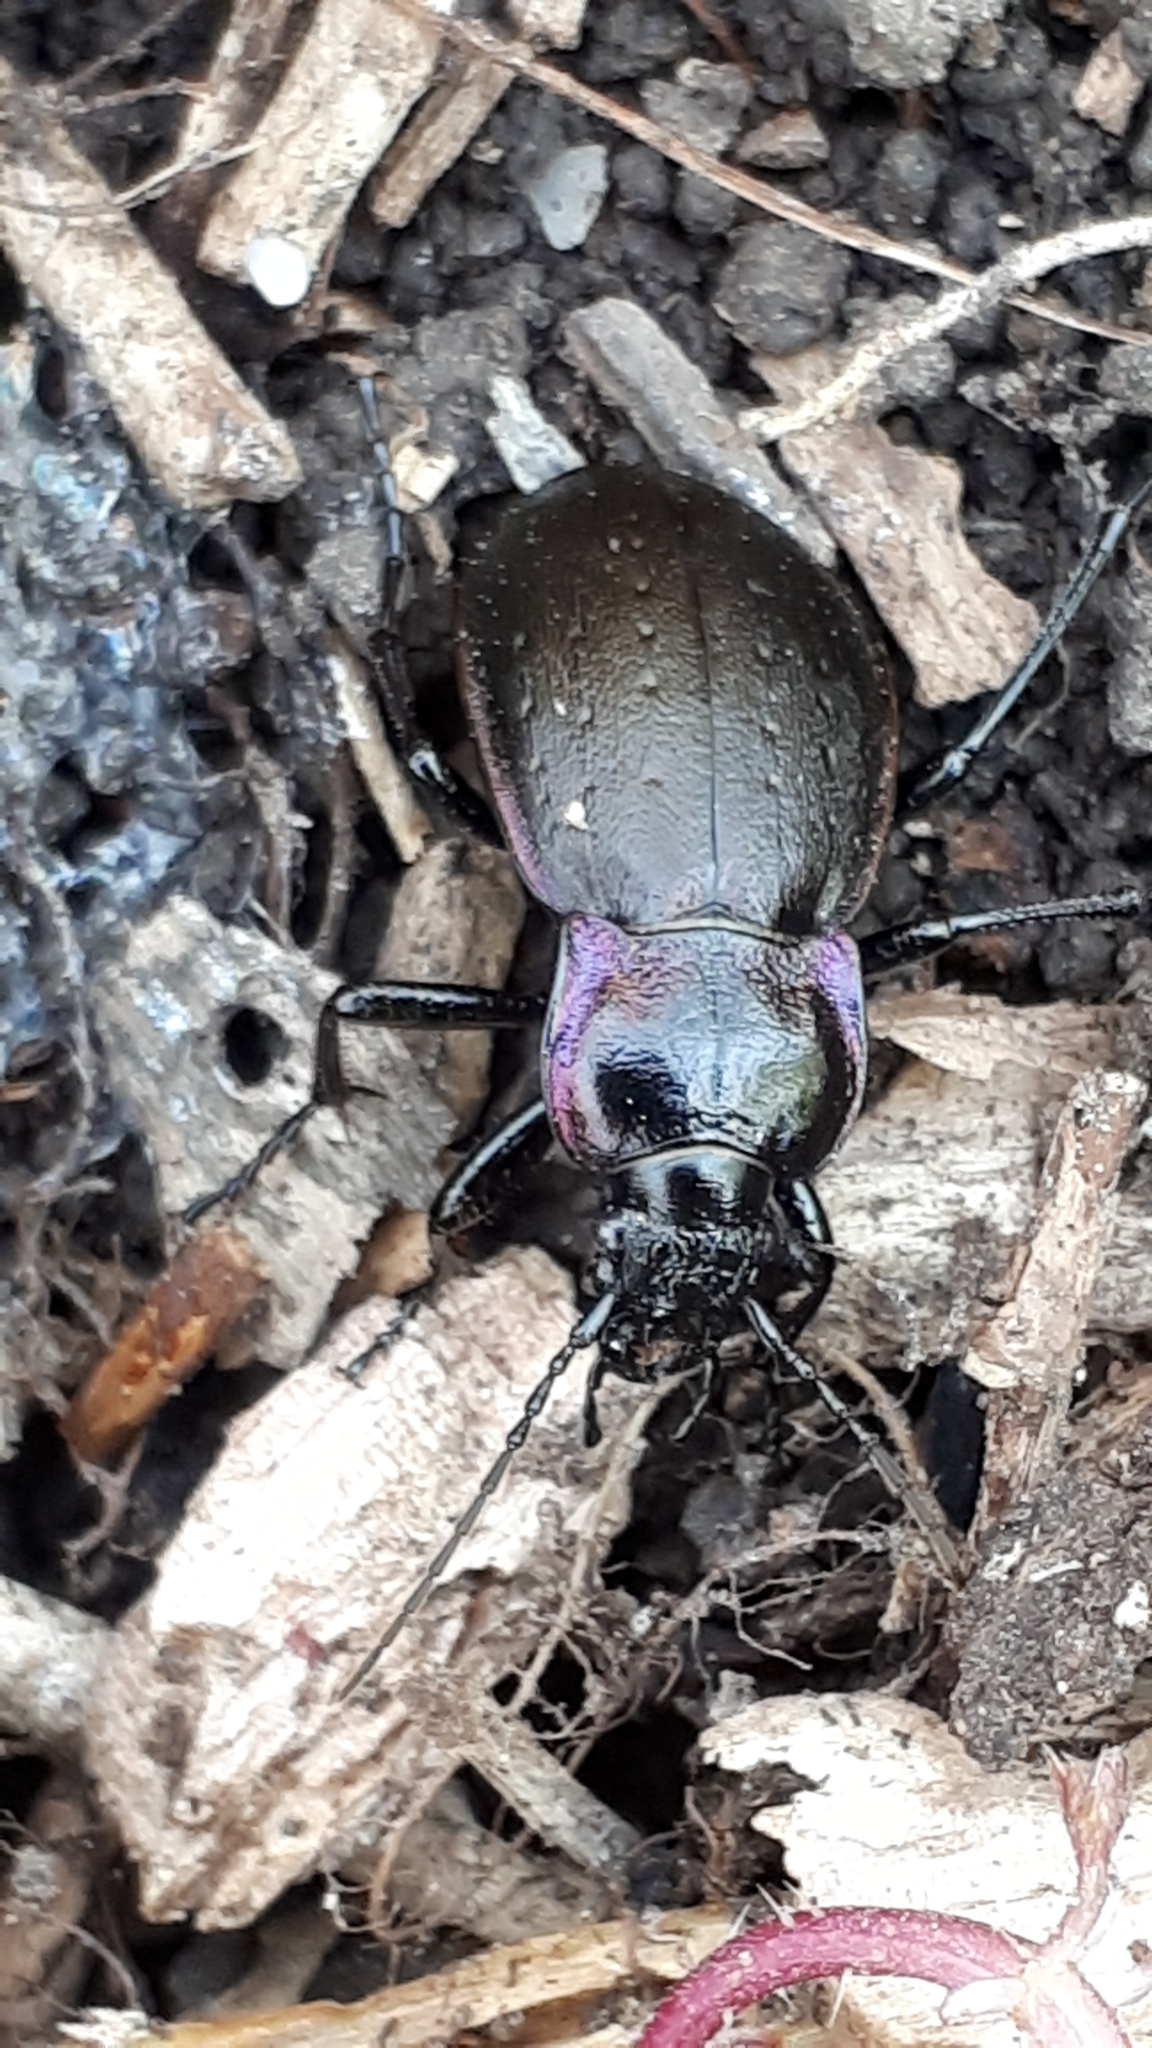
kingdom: Animalia
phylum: Arthropoda
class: Insecta
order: Coleoptera
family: Carabidae
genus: Carabus
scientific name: Carabus nemoralis
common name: European ground beetle
